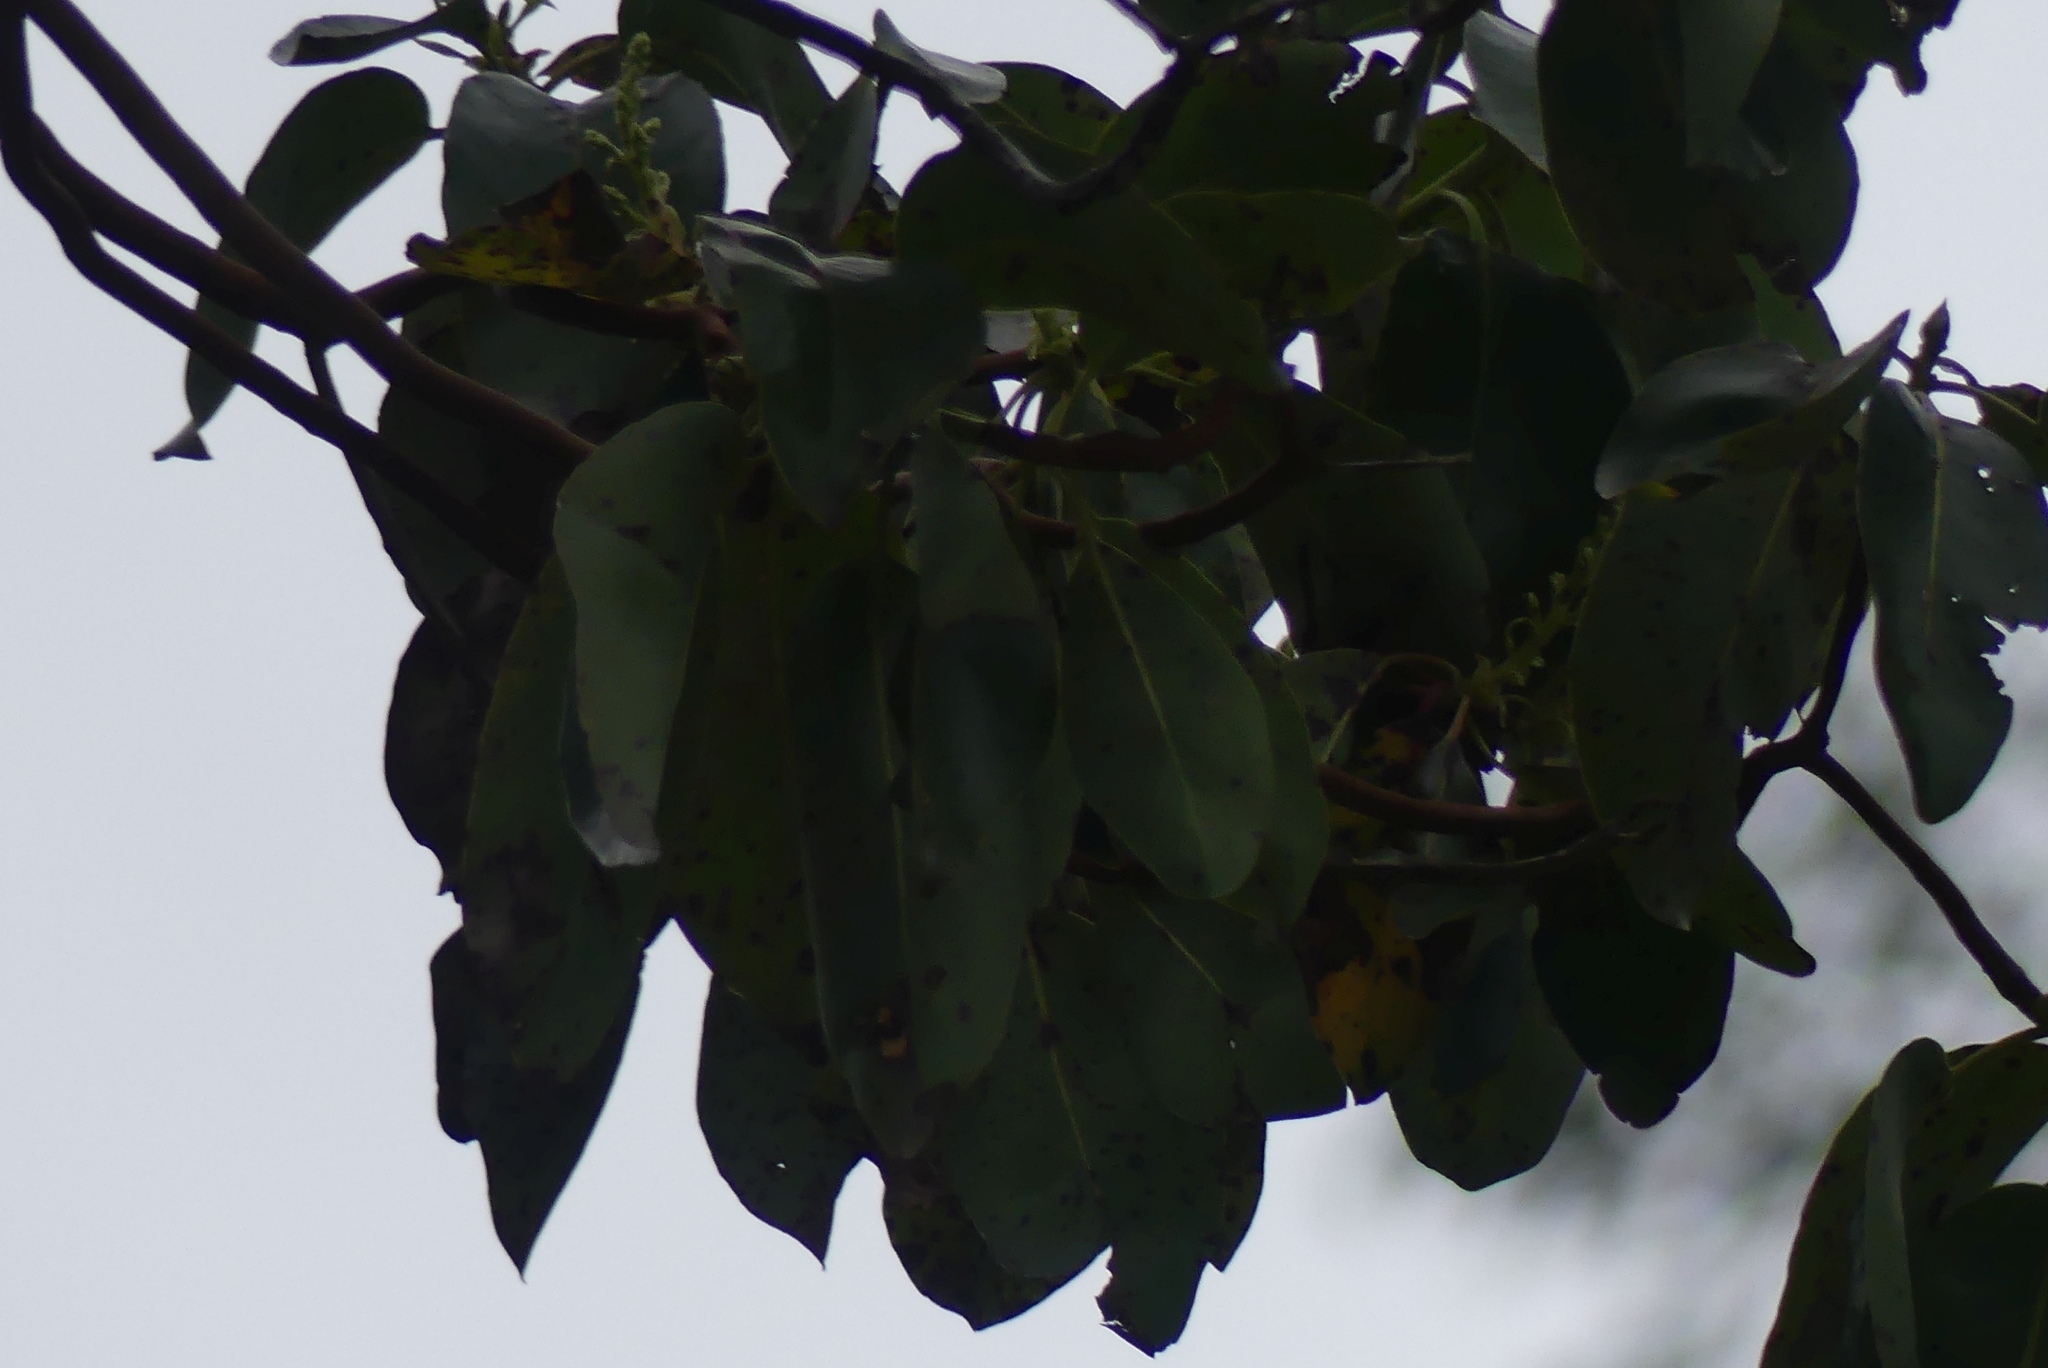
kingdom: Plantae
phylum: Tracheophyta
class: Magnoliopsida
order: Ericales
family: Ericaceae
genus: Arbutus
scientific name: Arbutus menziesii
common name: Pacific madrone
